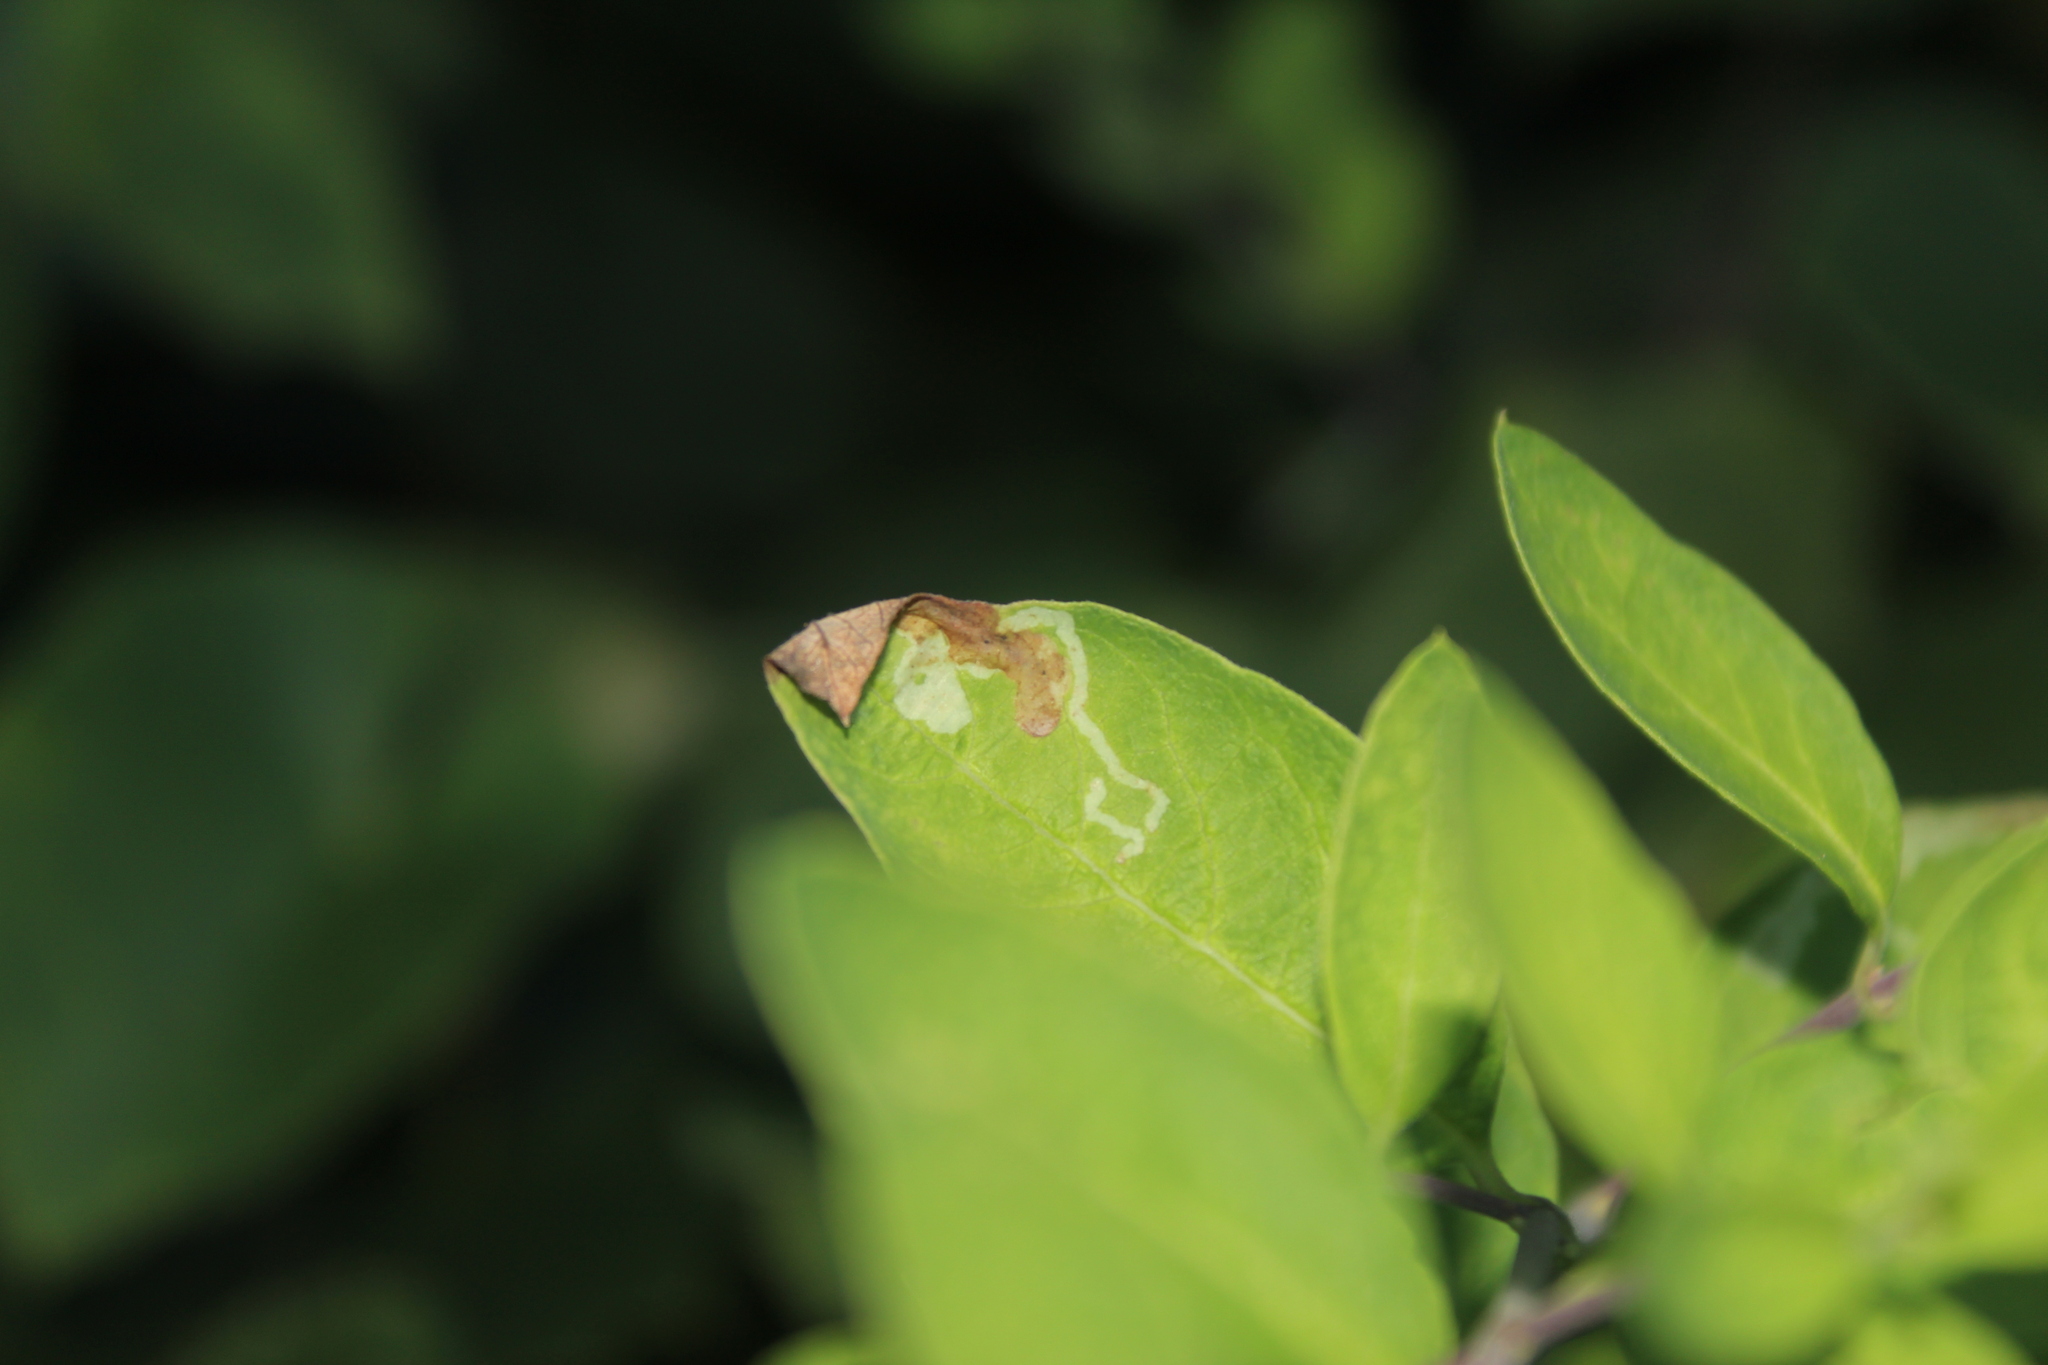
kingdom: Animalia
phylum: Arthropoda
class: Insecta
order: Diptera
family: Agromyzidae
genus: Aulagromyza
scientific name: Aulagromyza
